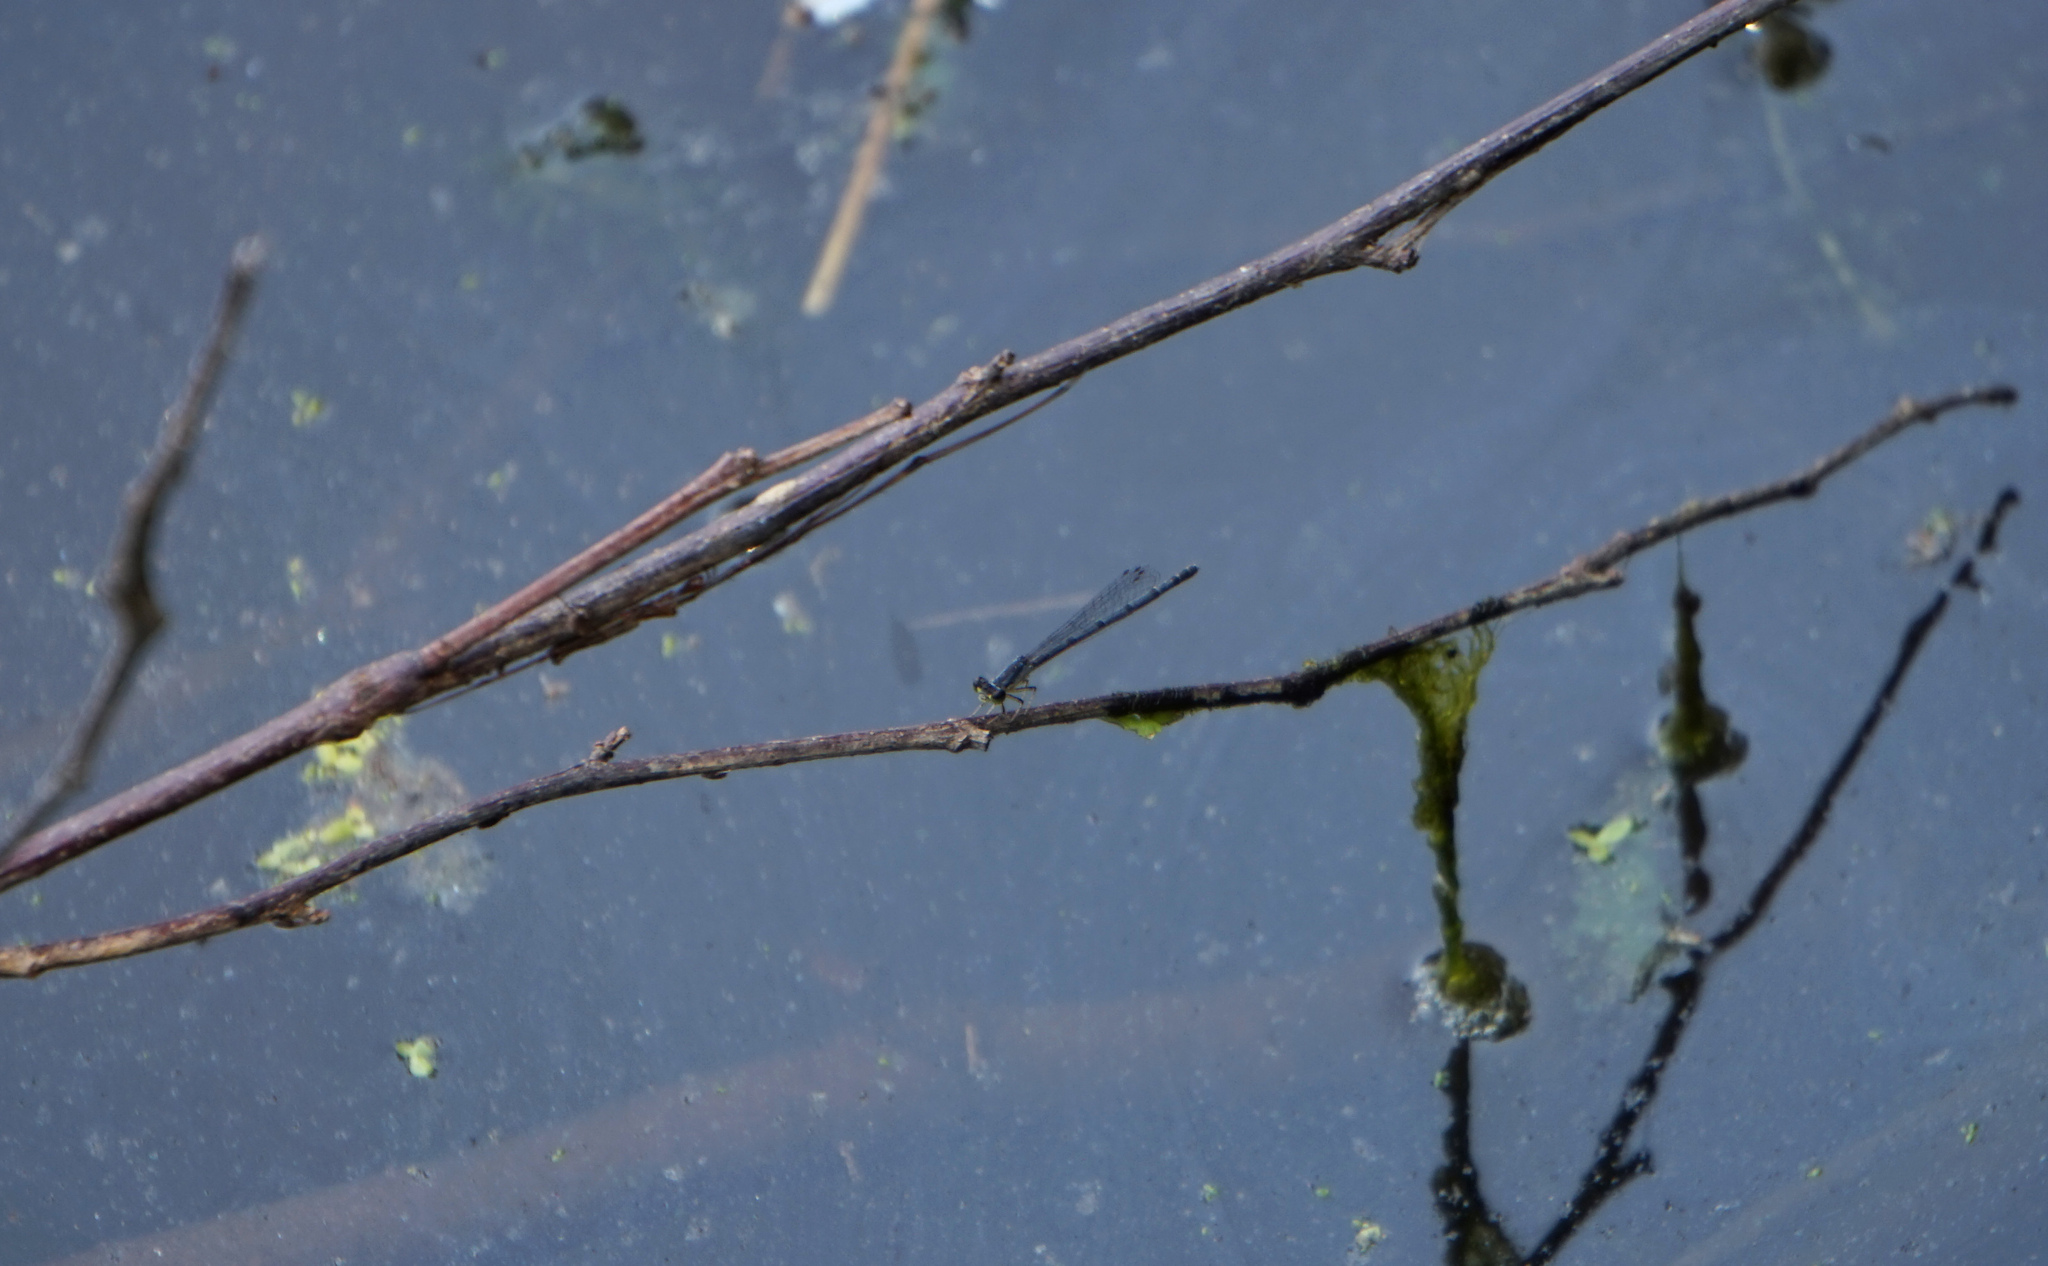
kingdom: Animalia
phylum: Arthropoda
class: Insecta
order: Odonata
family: Coenagrionidae
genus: Ischnura
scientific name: Ischnura posita
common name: Fragile forktail
